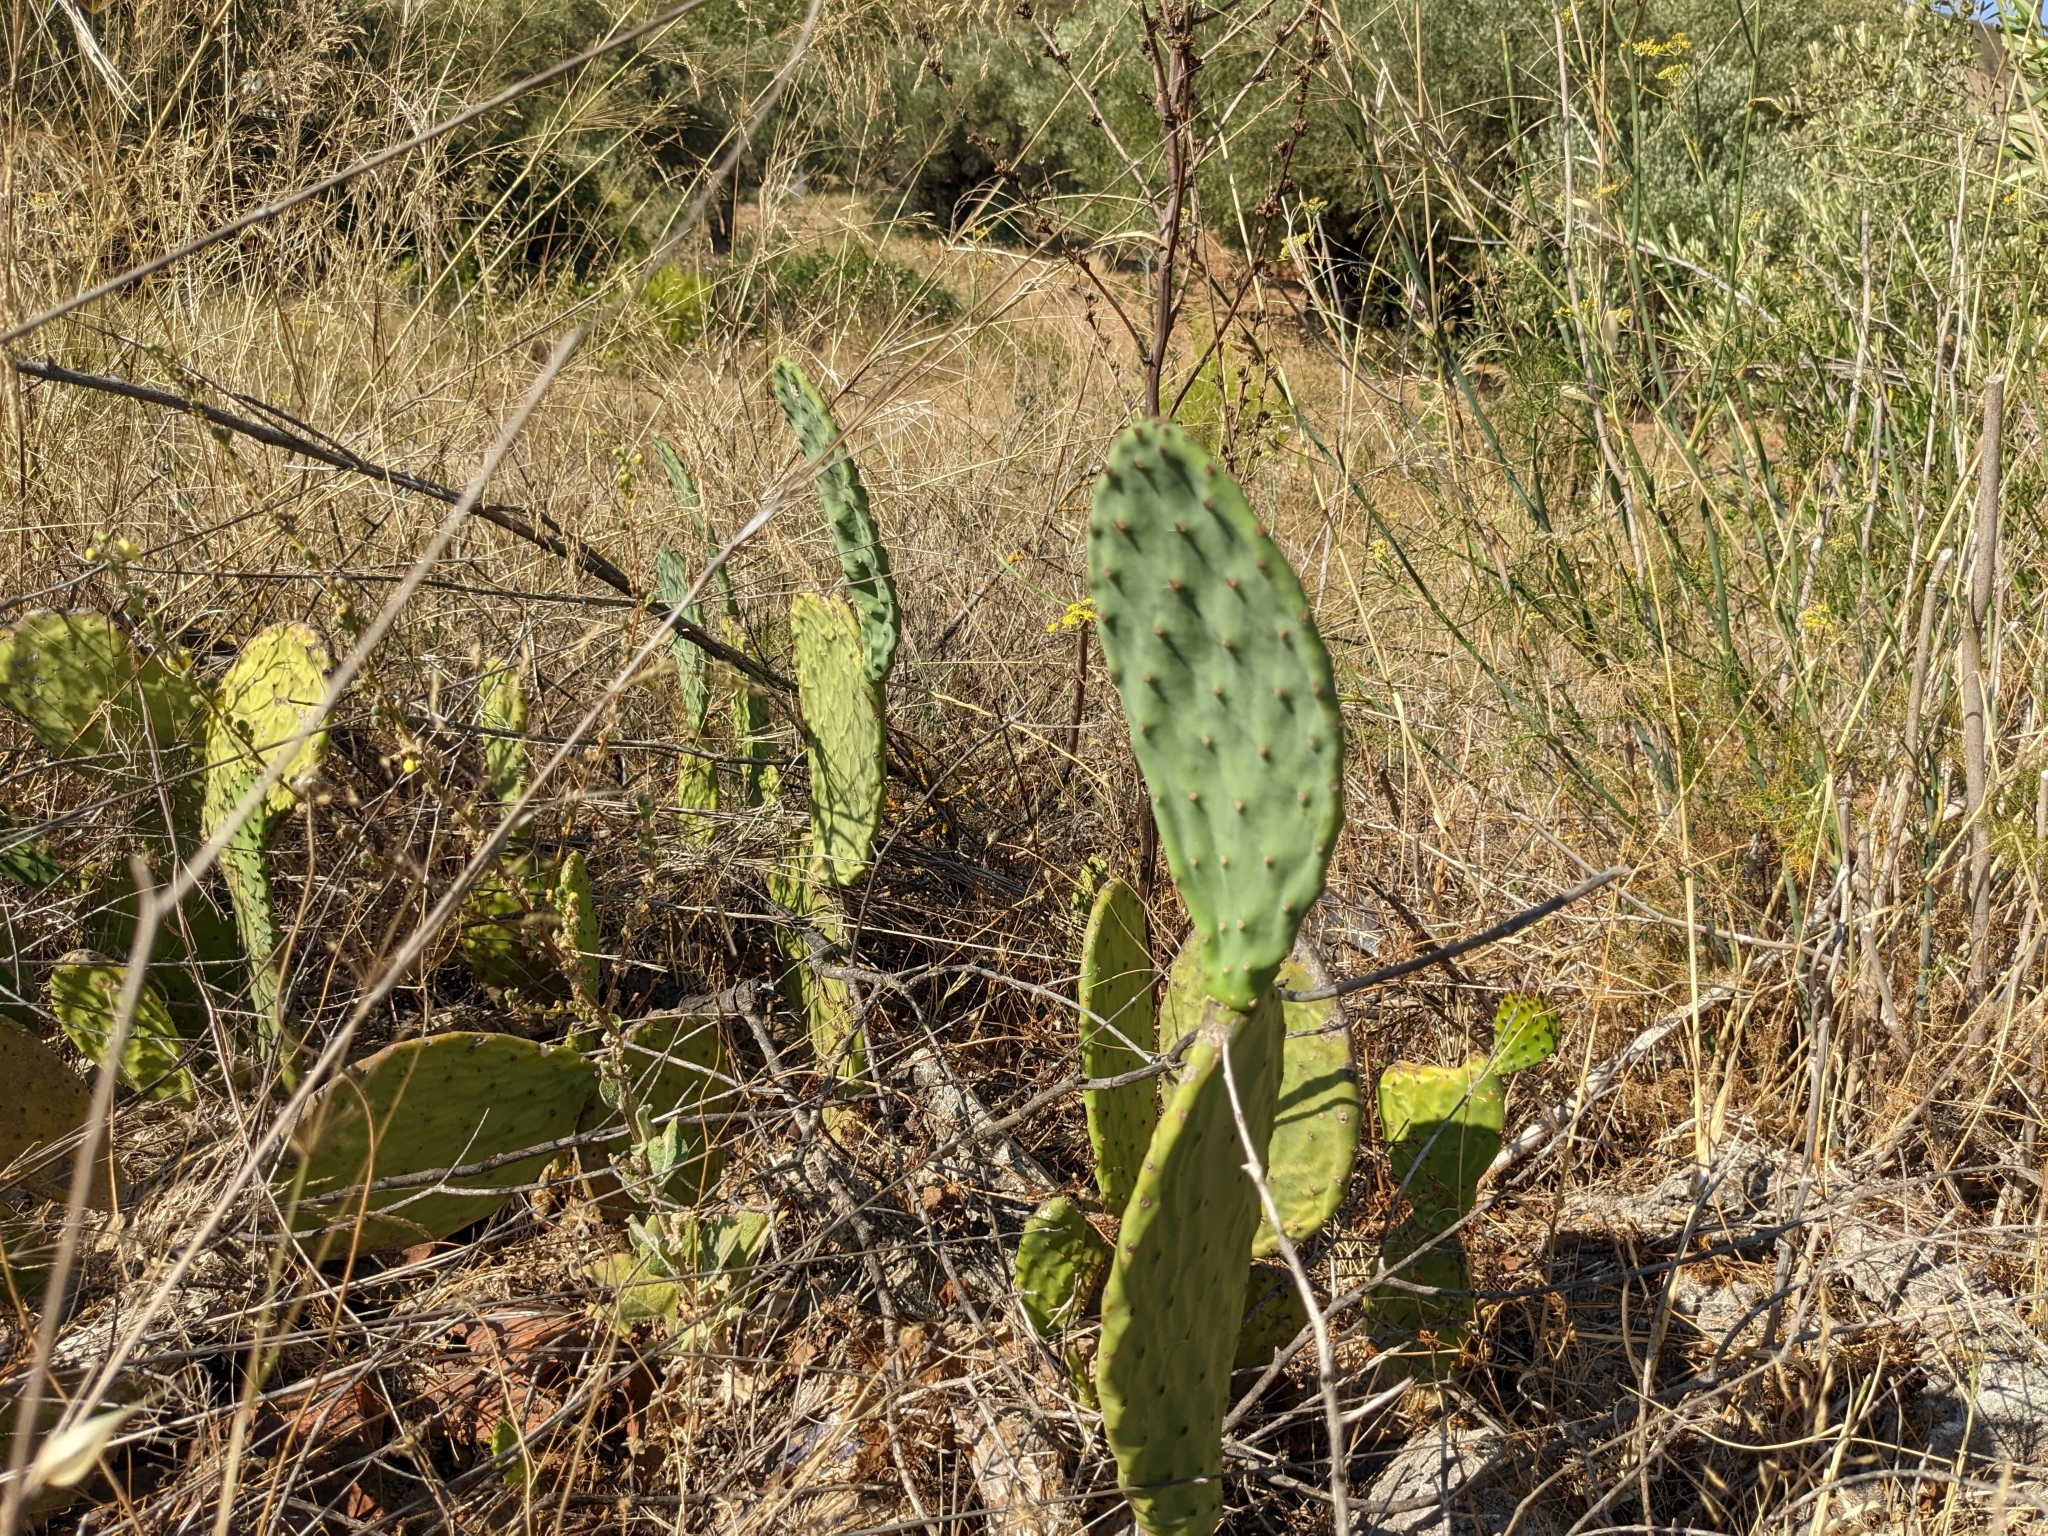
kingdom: Plantae
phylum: Tracheophyta
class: Magnoliopsida
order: Caryophyllales
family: Cactaceae
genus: Opuntia
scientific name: Opuntia ficus-indica
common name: Barbary fig
